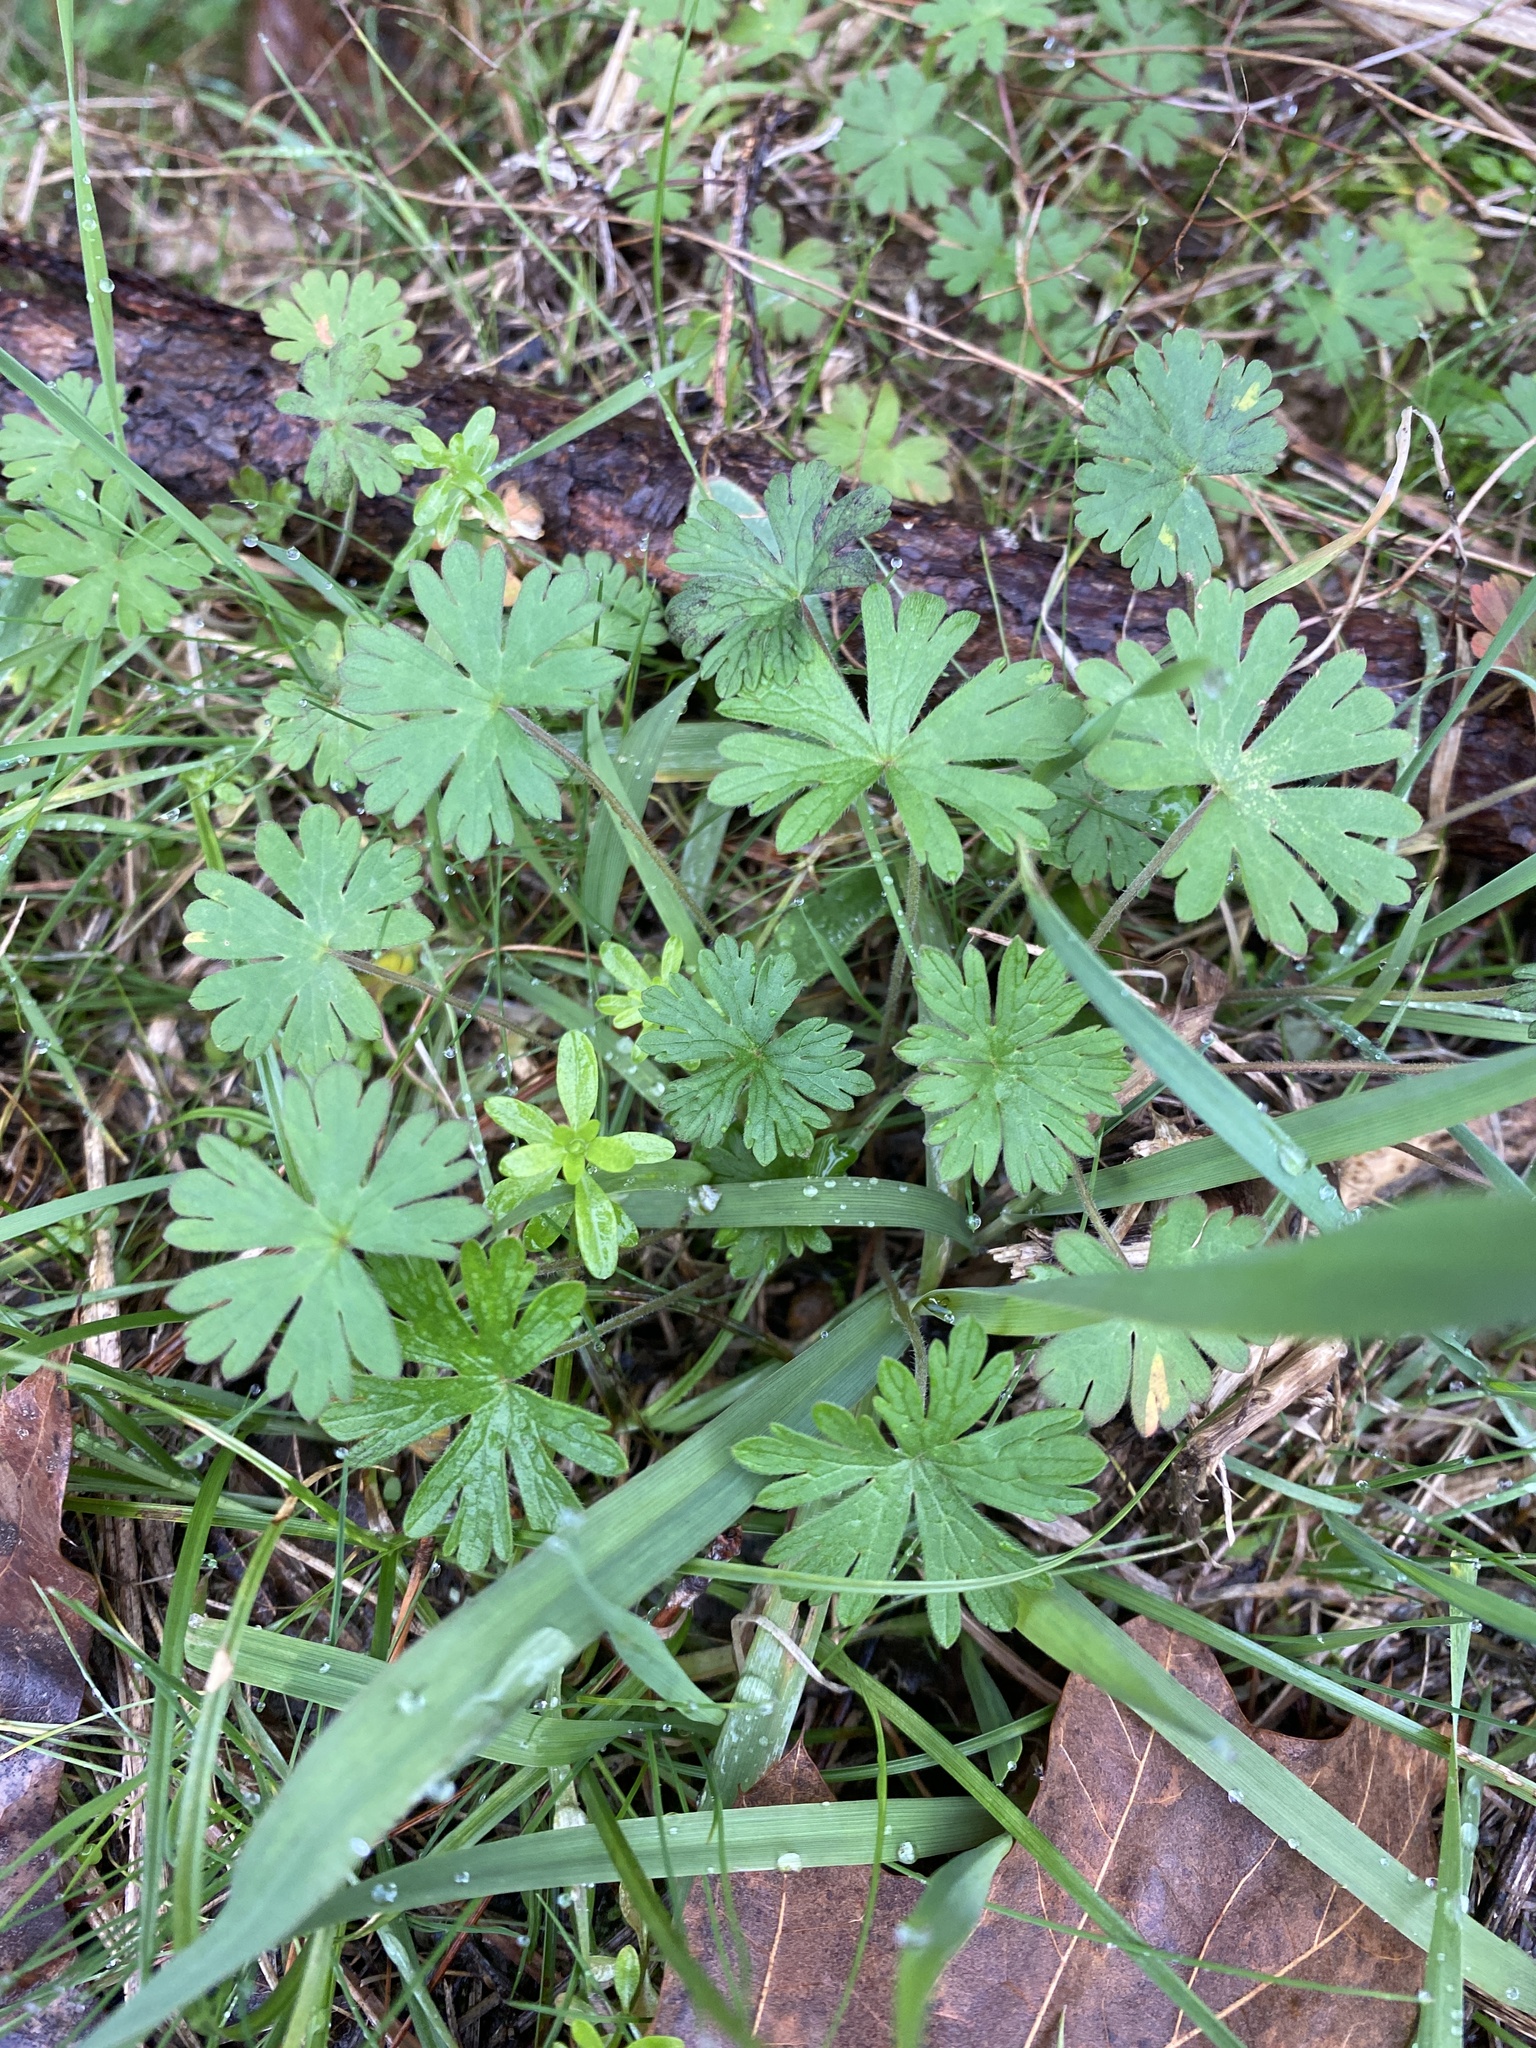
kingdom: Plantae
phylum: Tracheophyta
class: Magnoliopsida
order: Geraniales
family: Geraniaceae
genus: Geranium
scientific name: Geranium carolinianum
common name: Carolina crane's-bill
